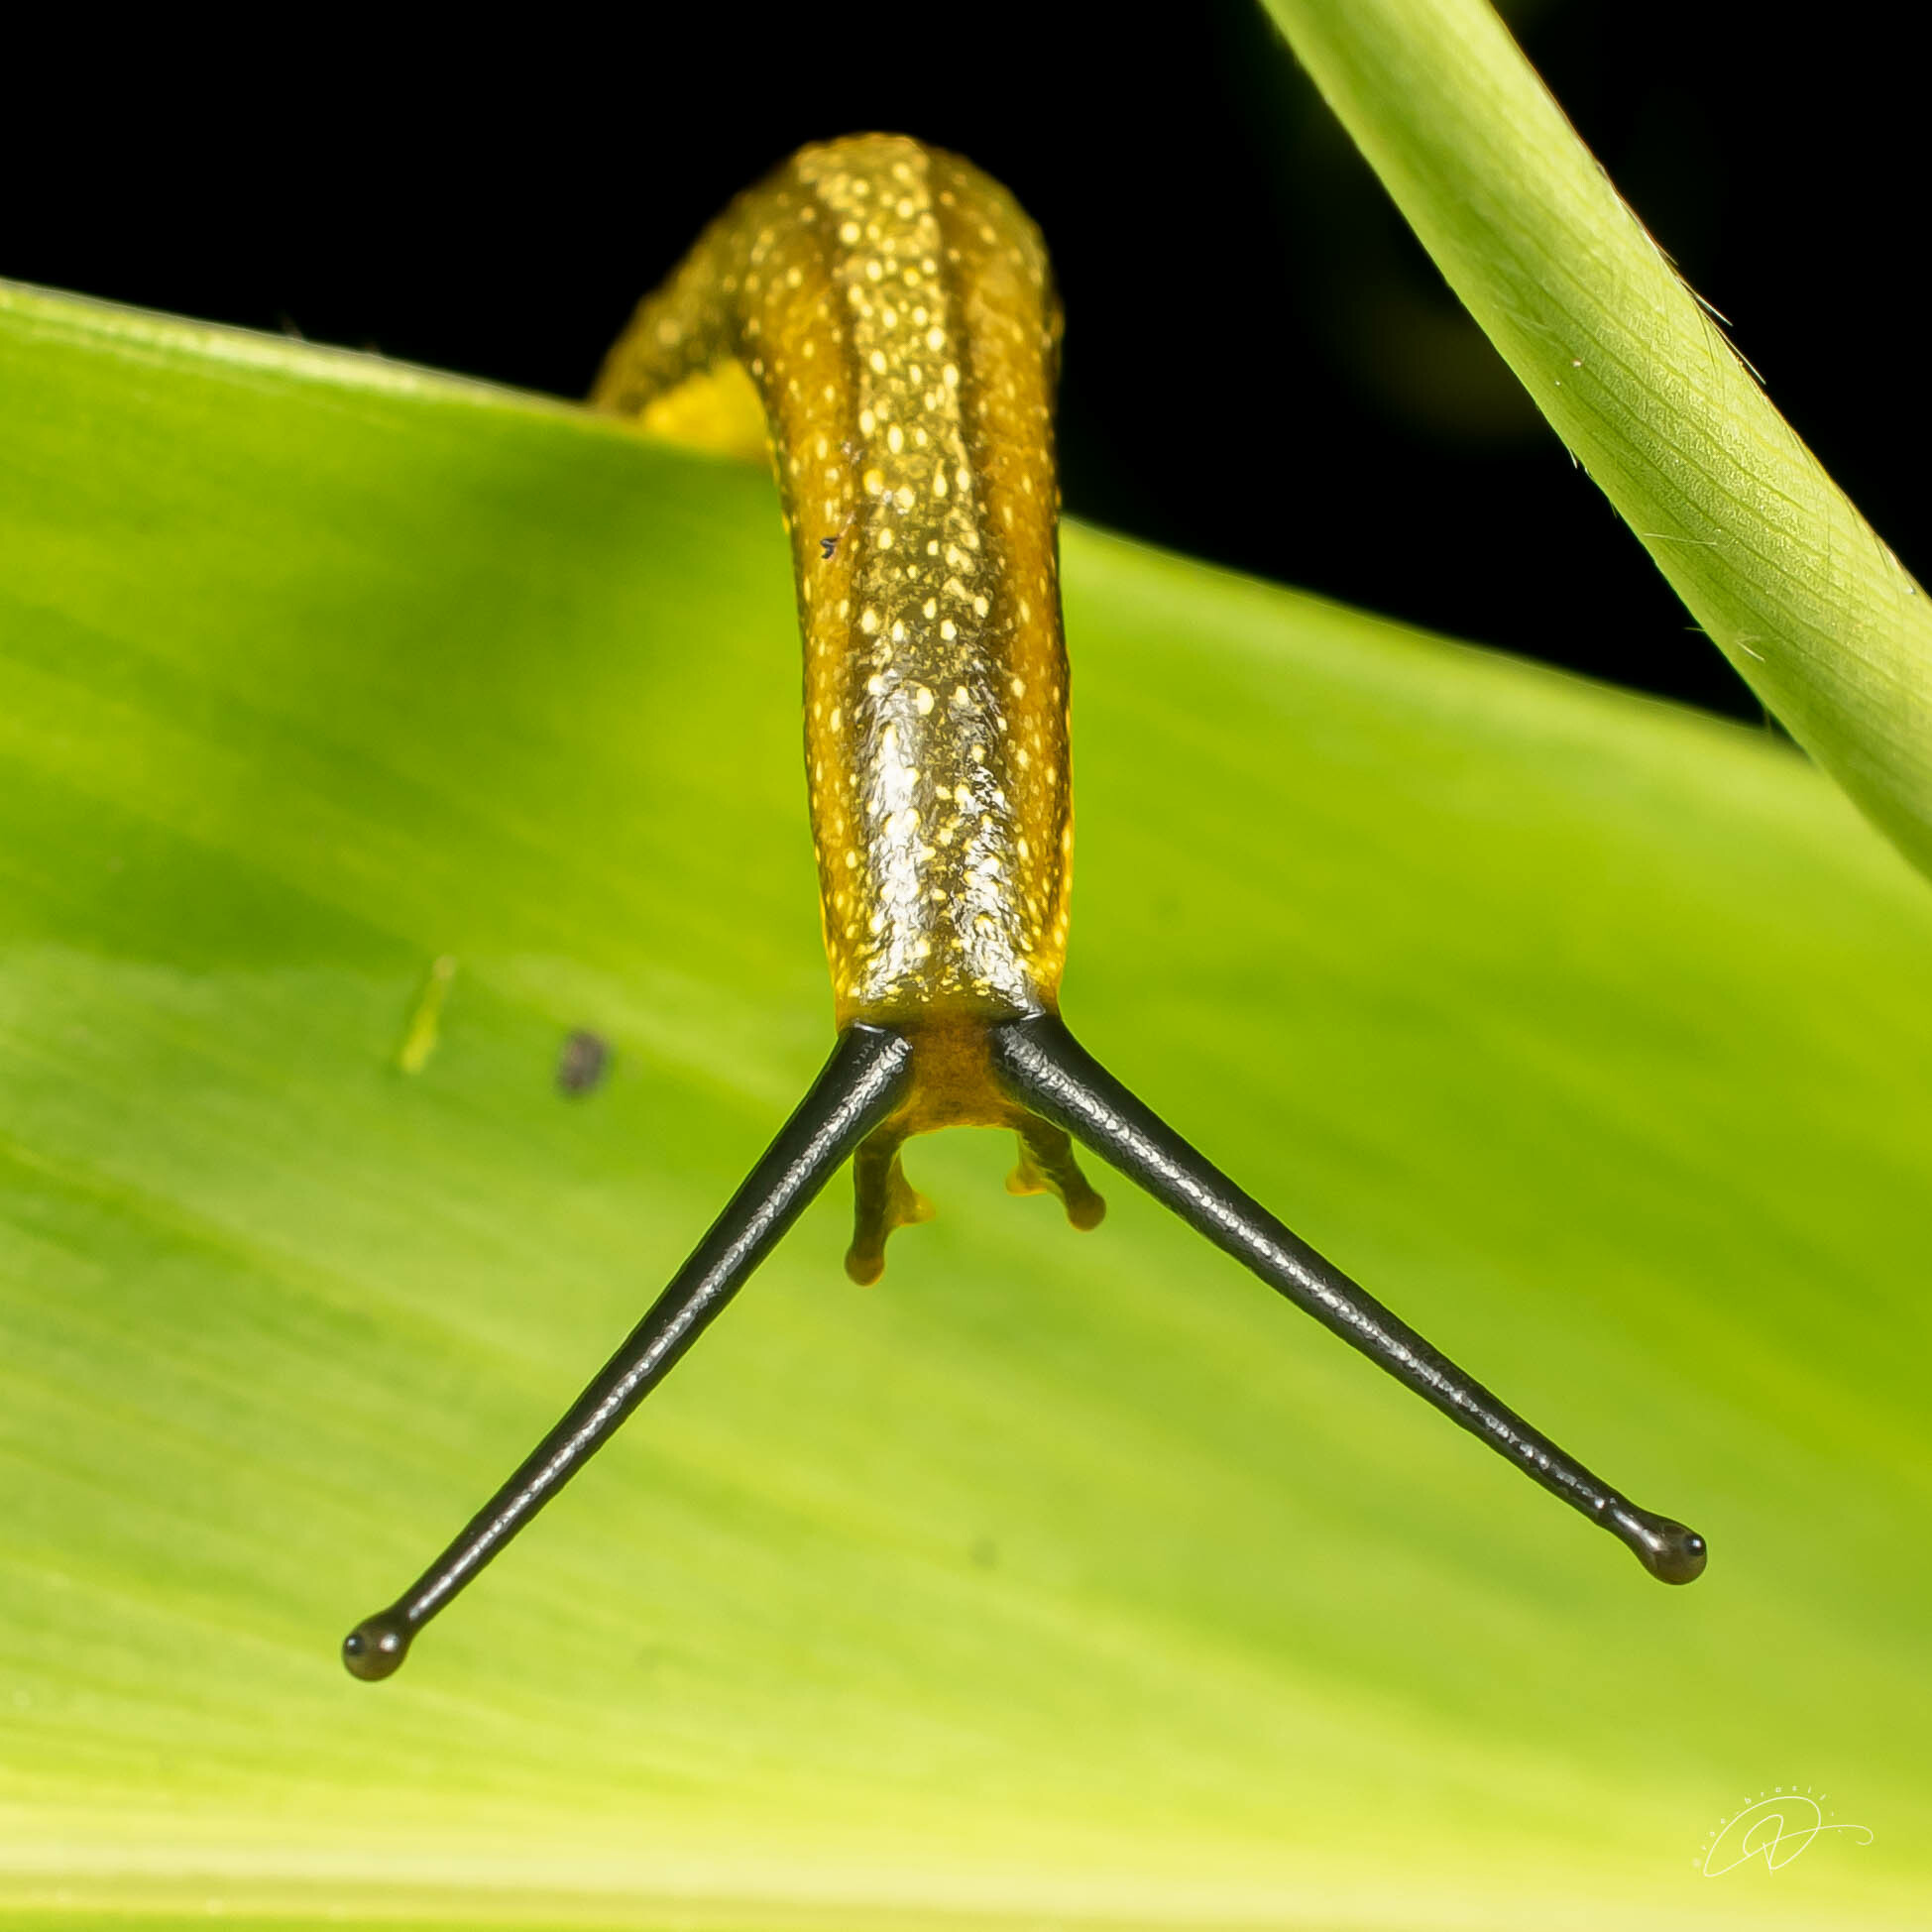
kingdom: Animalia
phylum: Mollusca
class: Gastropoda
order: Systellommatophora
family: Veronicellidae
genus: Vaginulus
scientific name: Vaginulus taunaisii
